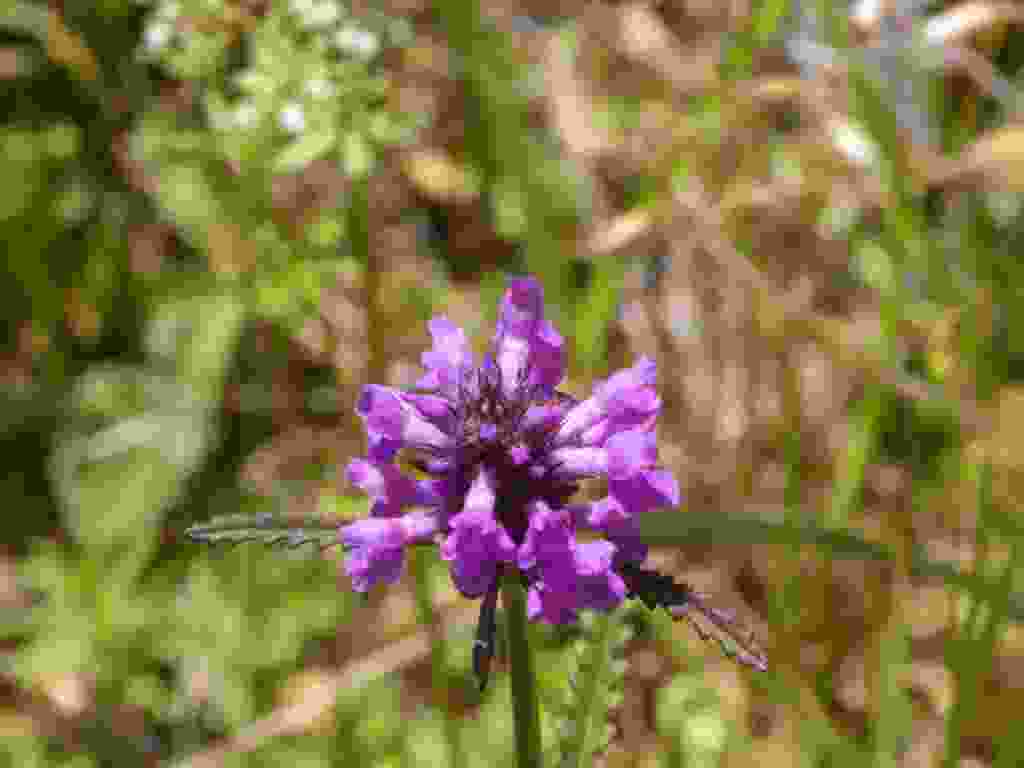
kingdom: Plantae
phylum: Tracheophyta
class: Magnoliopsida
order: Lamiales
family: Lamiaceae
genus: Betonica
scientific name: Betonica officinalis
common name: Bishop's-wort
